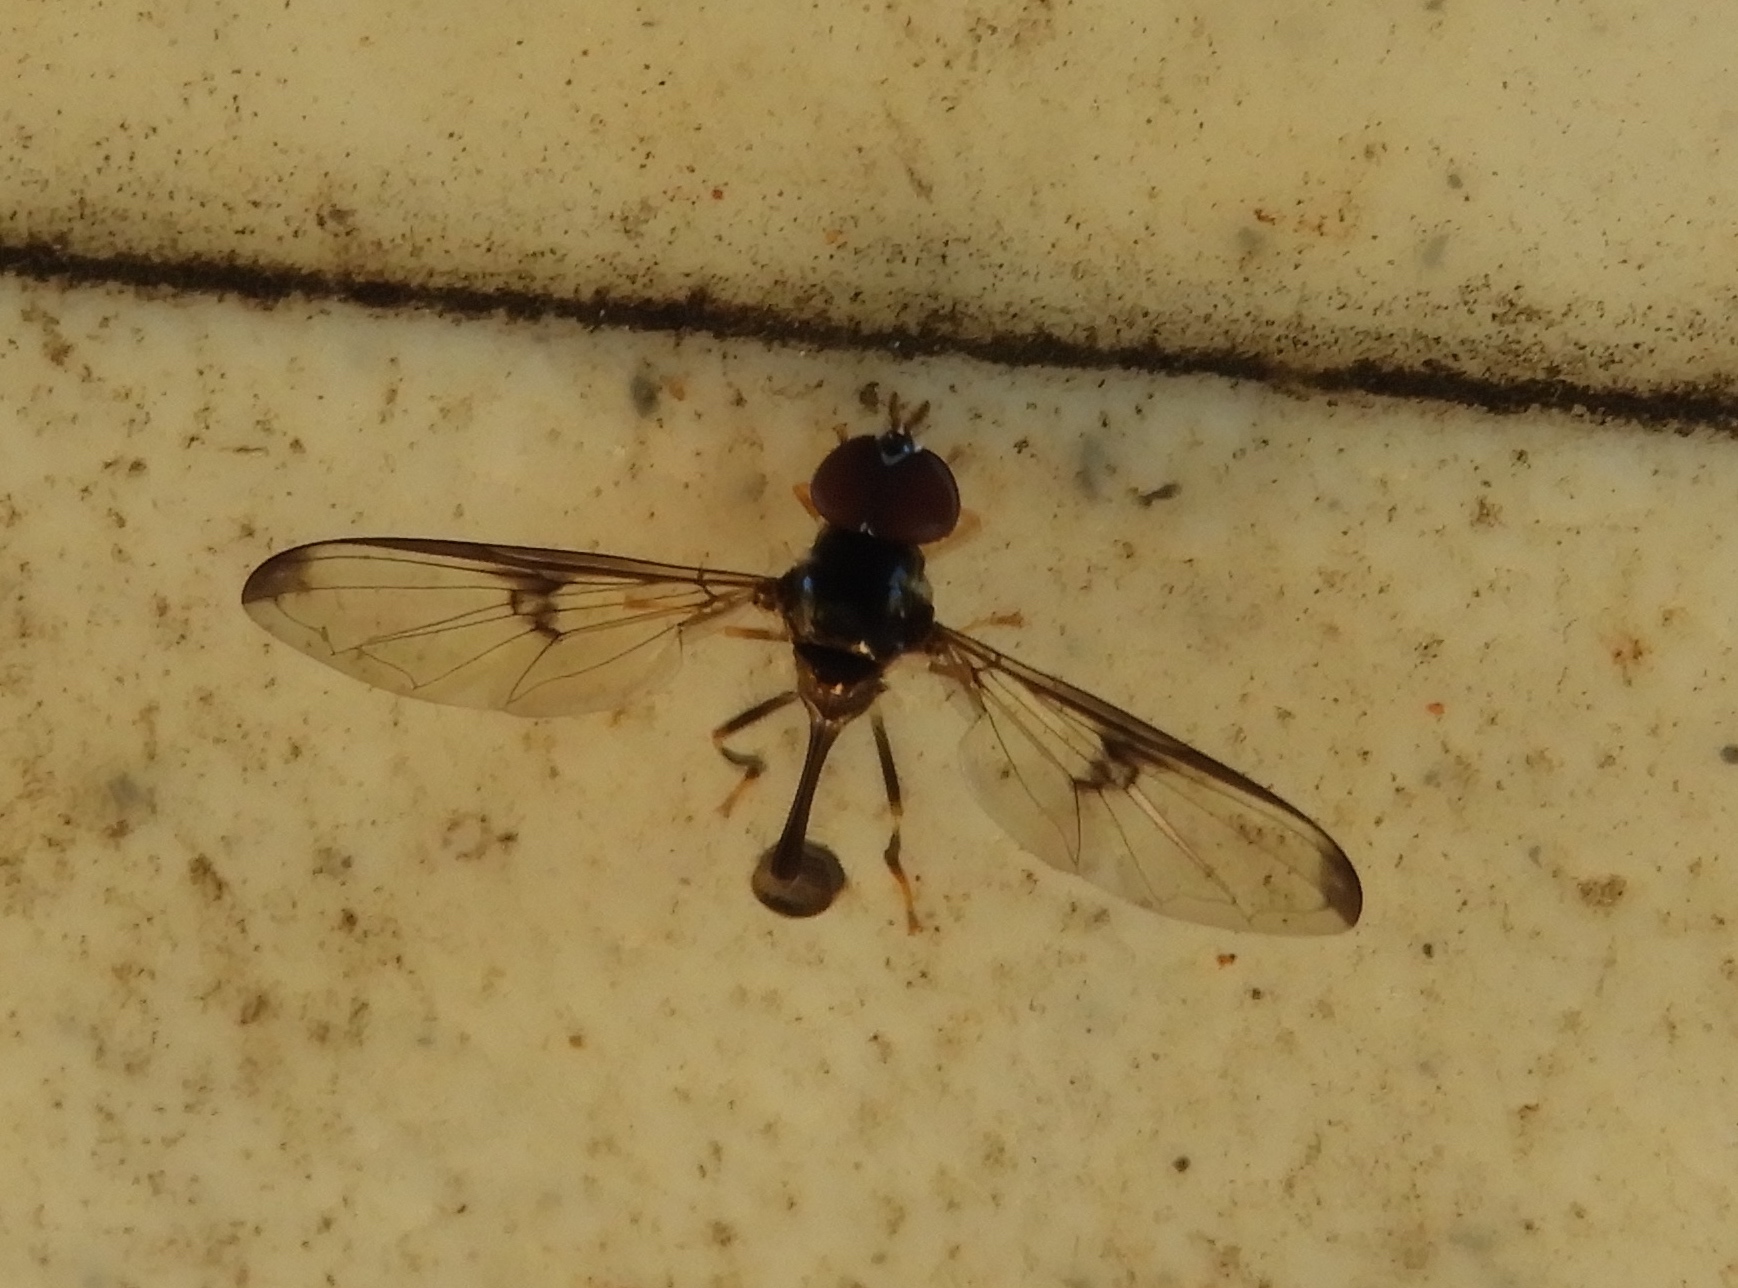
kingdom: Animalia
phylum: Arthropoda
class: Insecta
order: Diptera
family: Syrphidae
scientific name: Syrphidae
